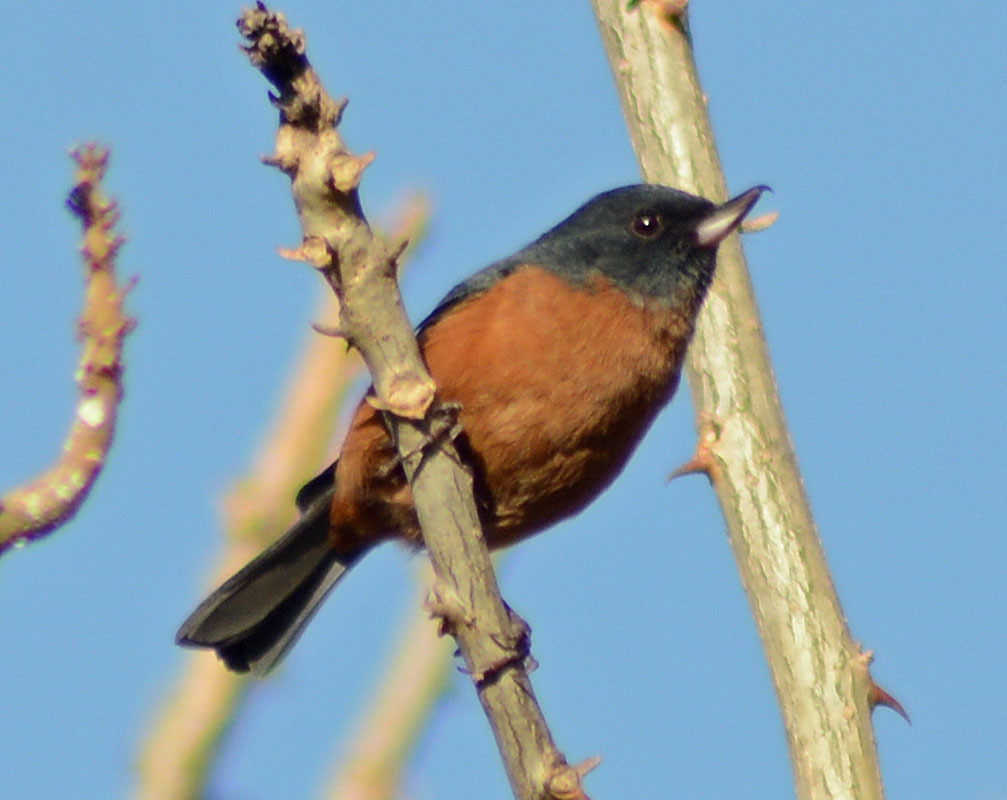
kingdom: Animalia
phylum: Chordata
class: Aves
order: Passeriformes
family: Thraupidae
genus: Diglossa
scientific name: Diglossa baritula
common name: Cinnamon-bellied flowerpiercer
